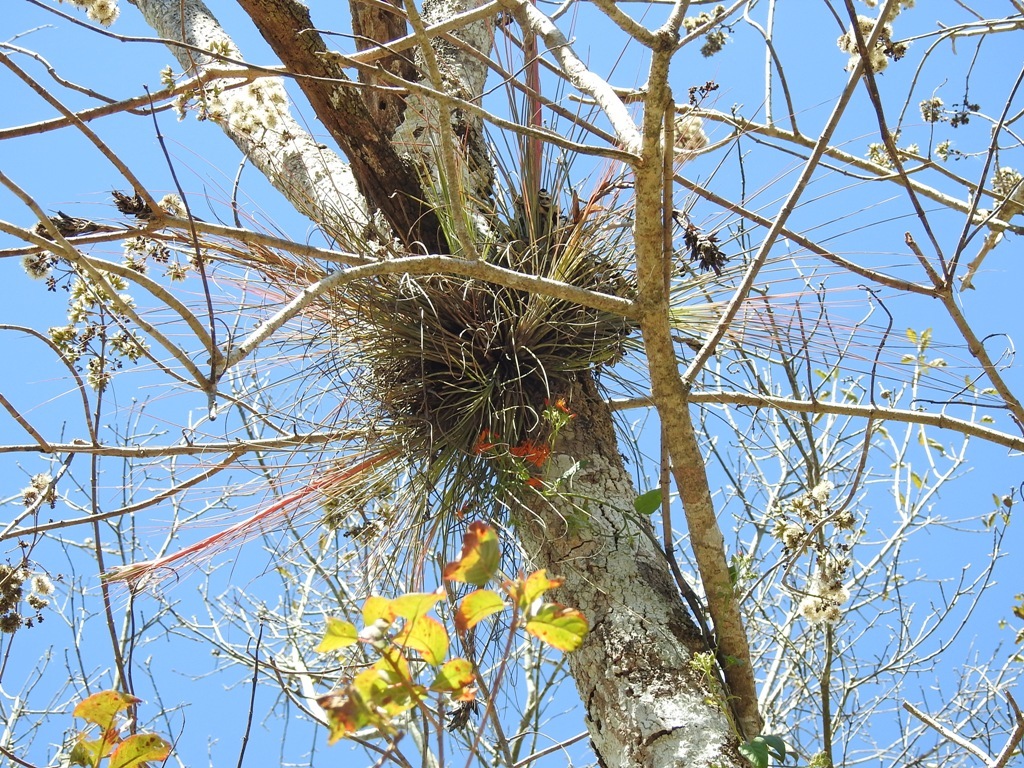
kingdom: Plantae
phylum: Tracheophyta
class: Liliopsida
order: Poales
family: Bromeliaceae
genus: Tillandsia
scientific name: Tillandsia juncea
